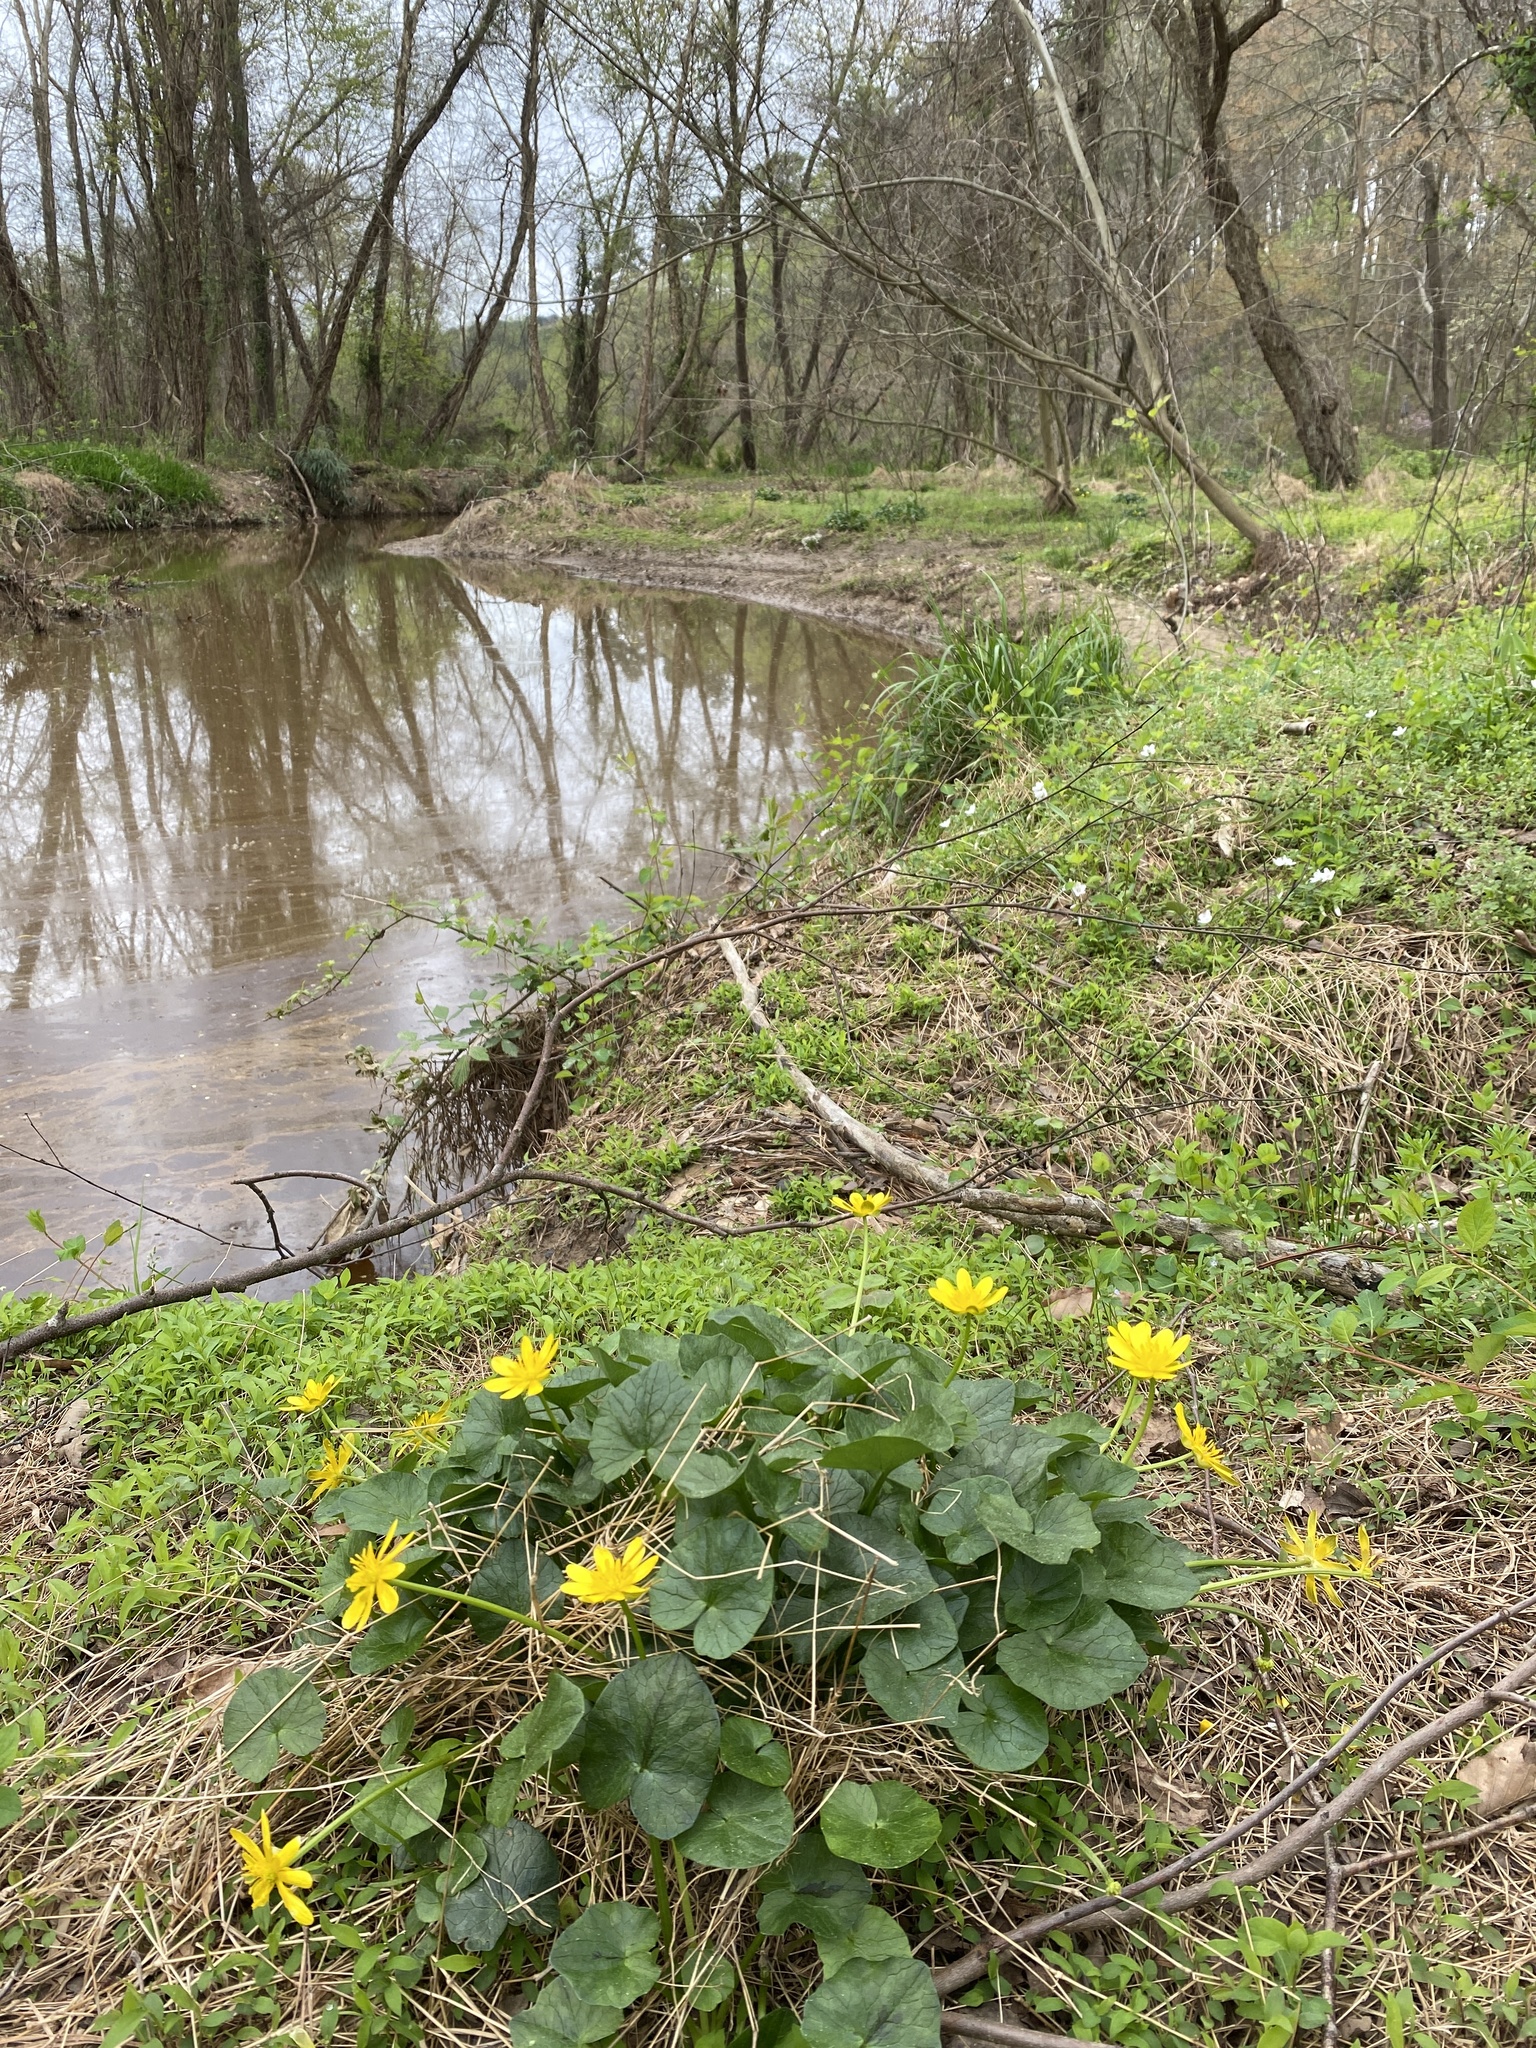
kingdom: Plantae
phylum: Tracheophyta
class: Magnoliopsida
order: Ranunculales
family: Ranunculaceae
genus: Ficaria
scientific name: Ficaria verna
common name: Lesser celandine
